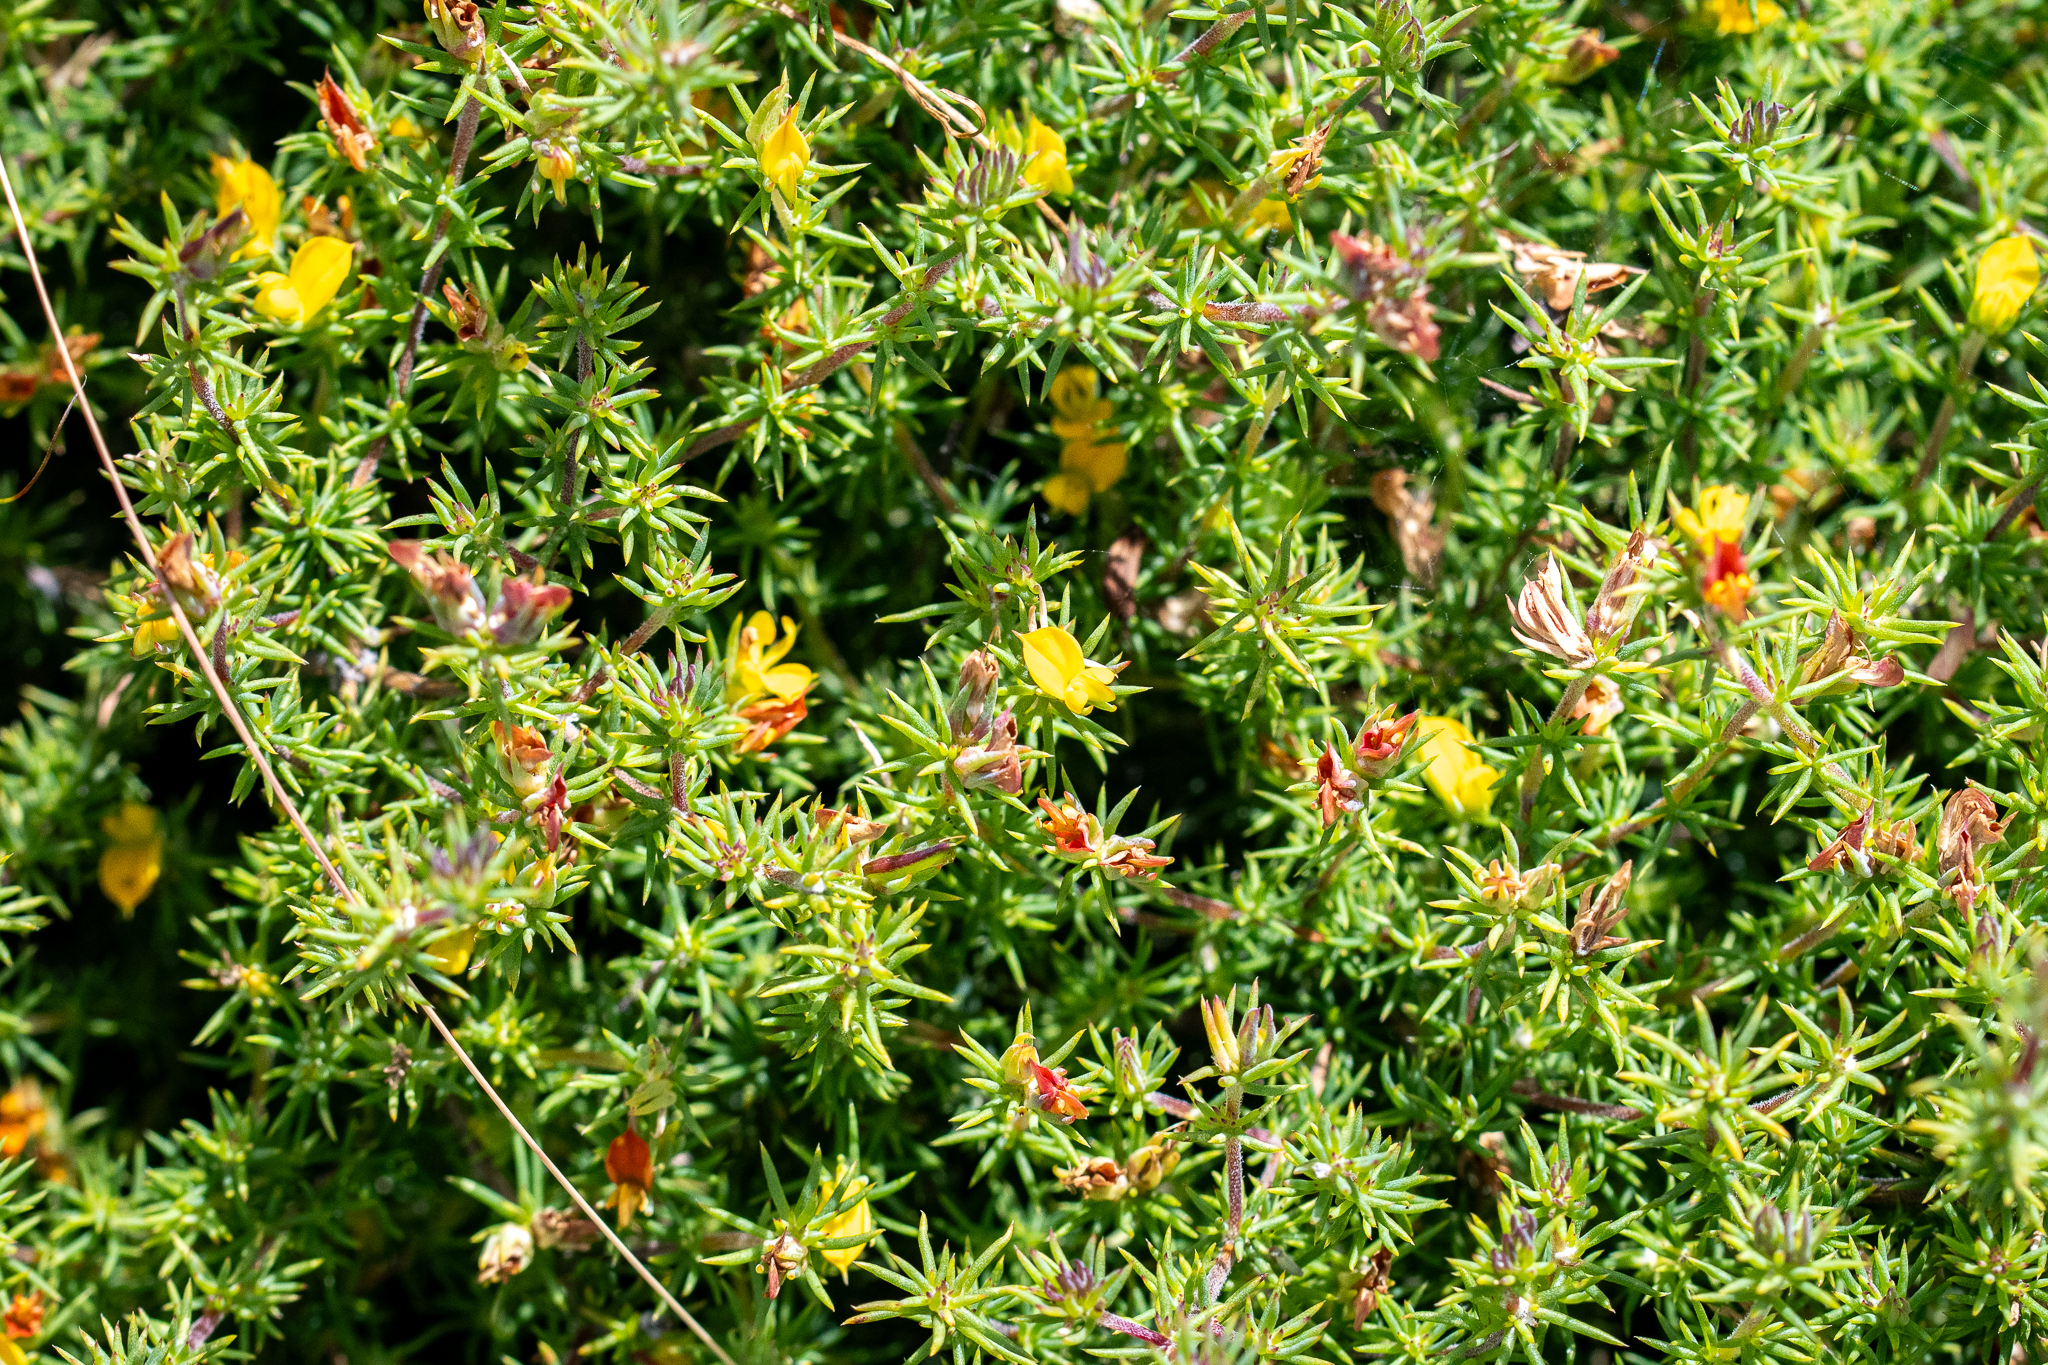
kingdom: Plantae
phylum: Tracheophyta
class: Magnoliopsida
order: Fabales
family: Fabaceae
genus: Aspalathus
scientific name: Aspalathus juniperina
